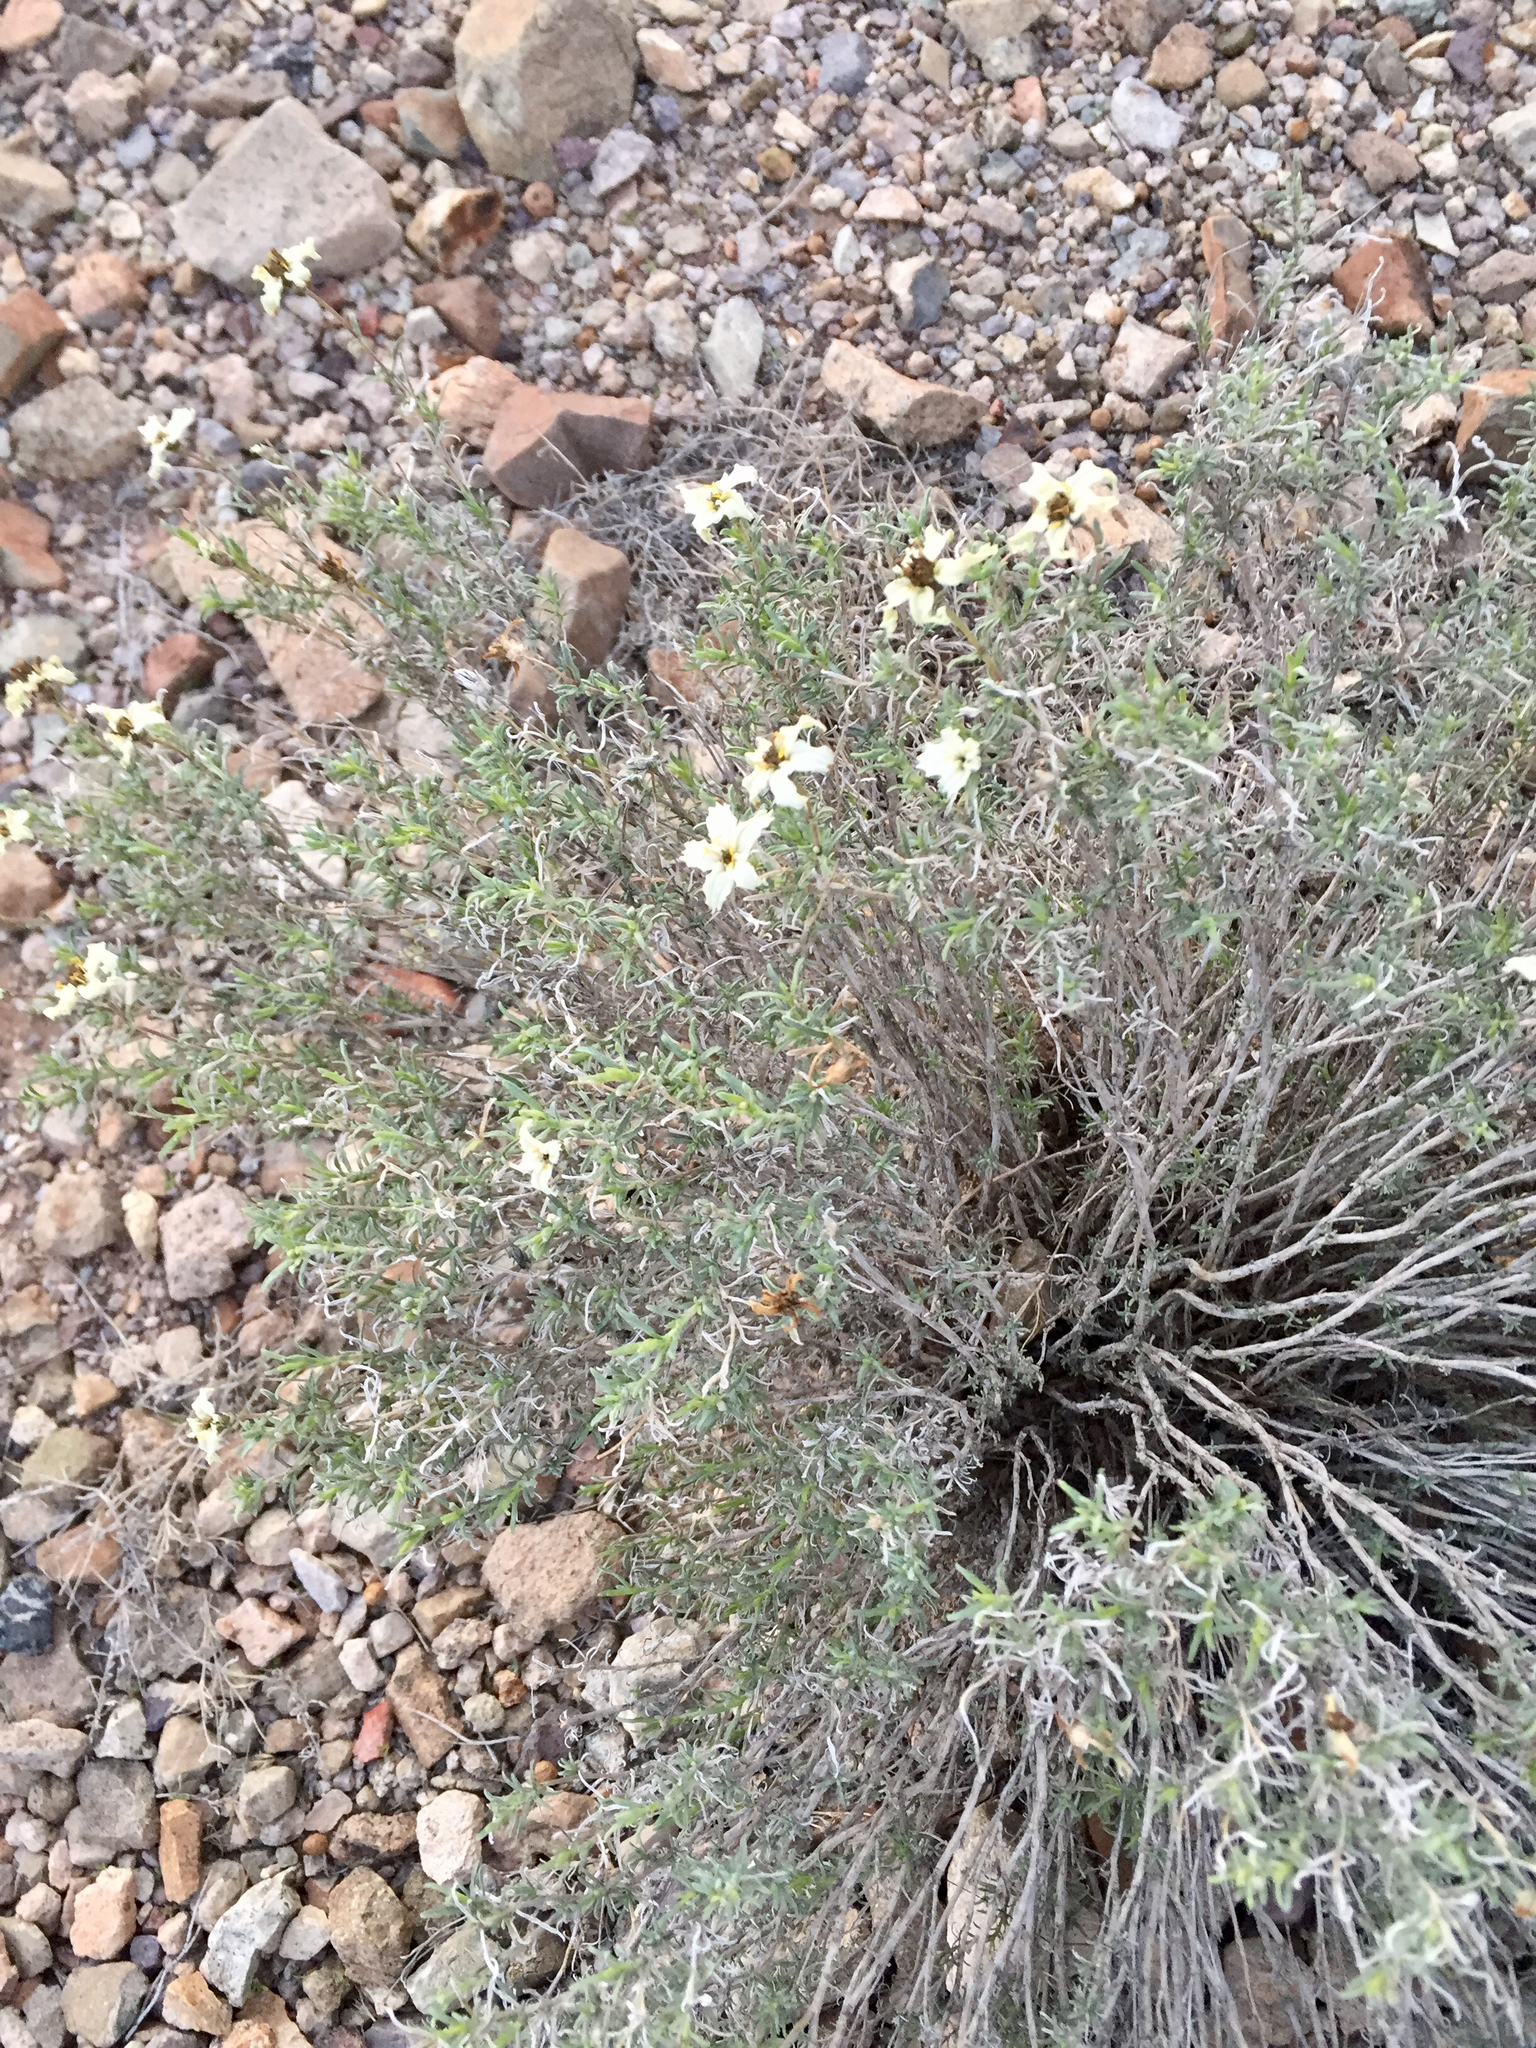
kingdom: Plantae
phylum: Tracheophyta
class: Magnoliopsida
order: Asterales
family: Asteraceae
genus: Zinnia
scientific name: Zinnia acerosa
